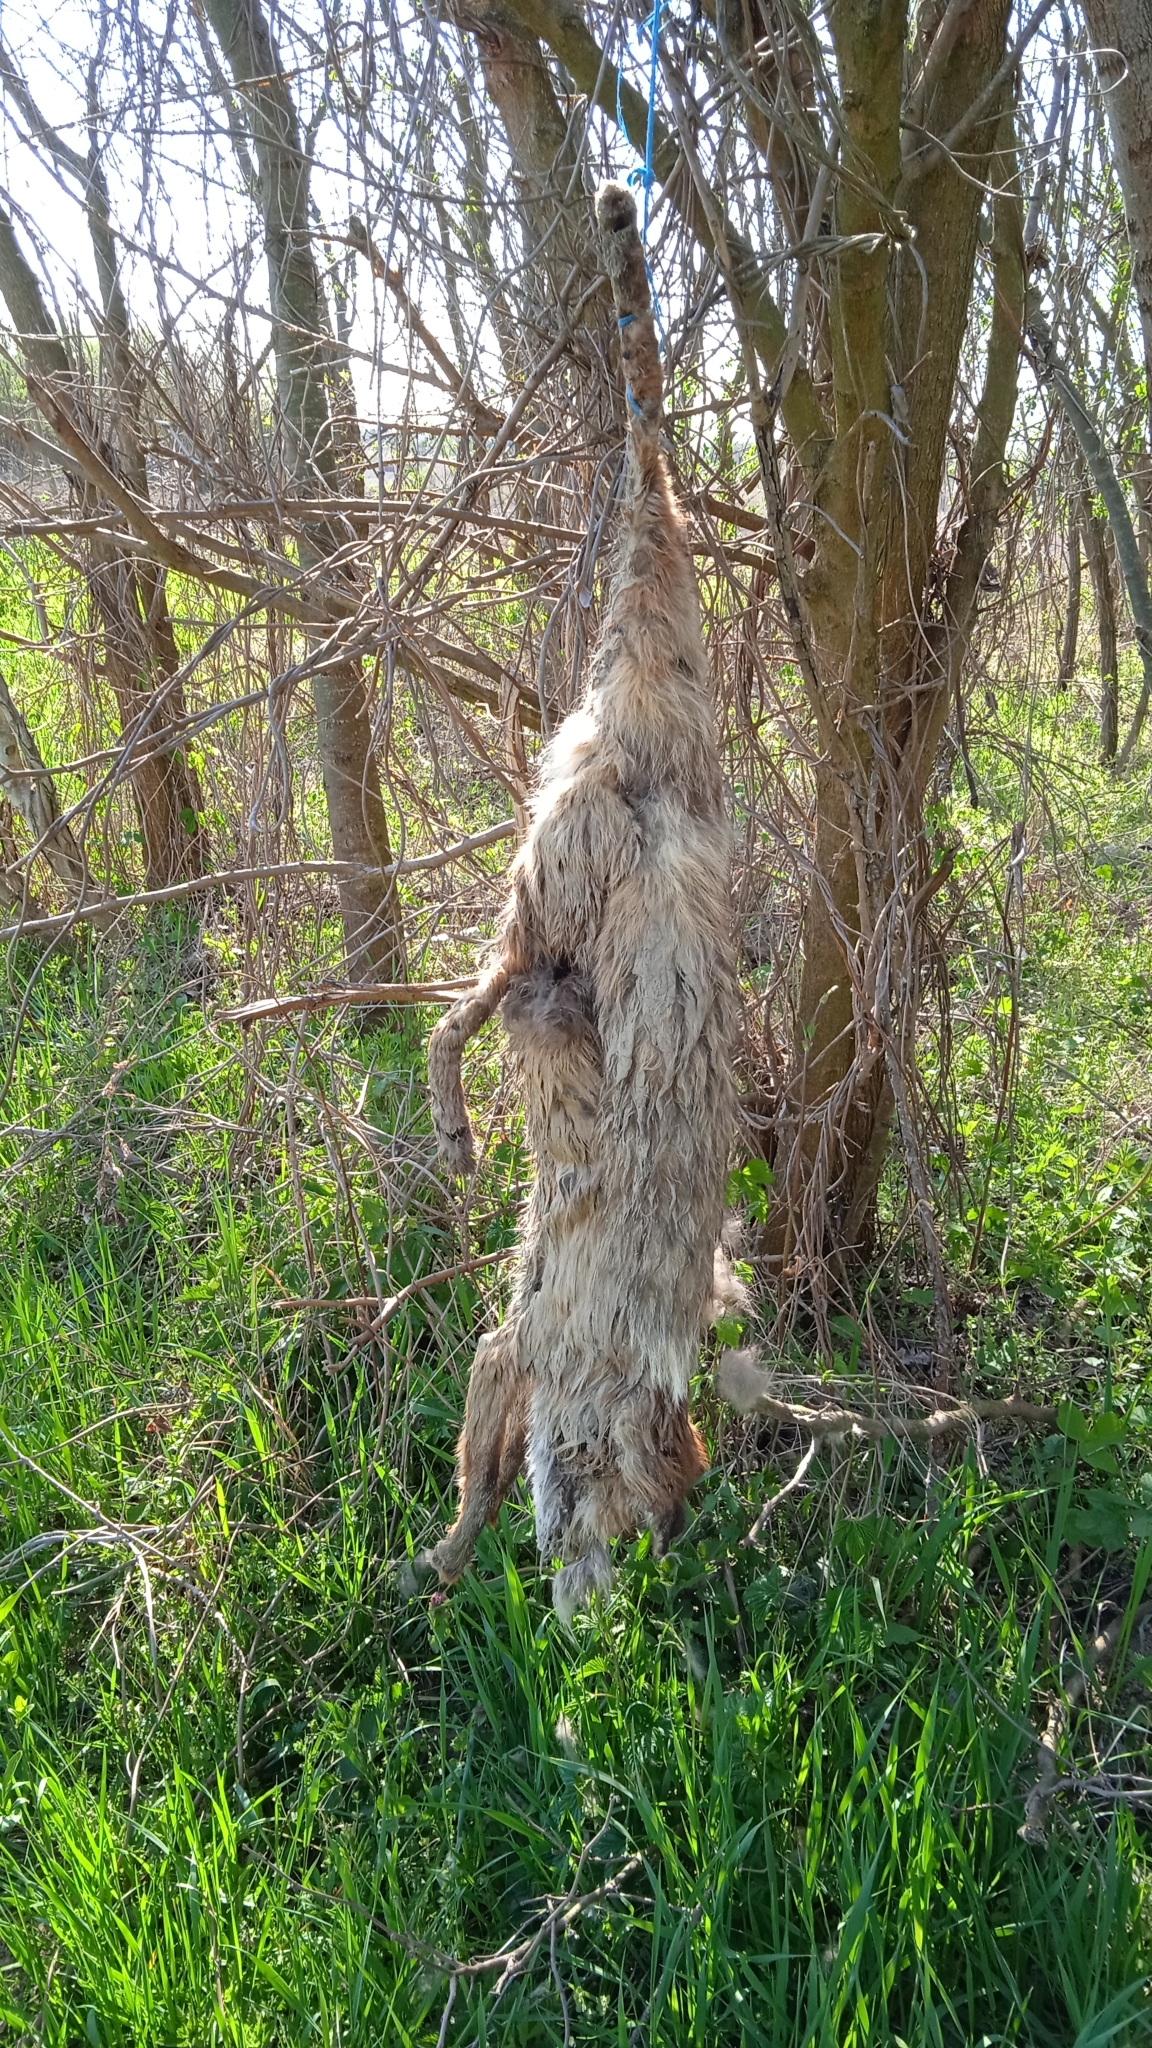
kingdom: Animalia
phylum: Chordata
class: Mammalia
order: Carnivora
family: Canidae
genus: Vulpes
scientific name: Vulpes vulpes
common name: Red fox
